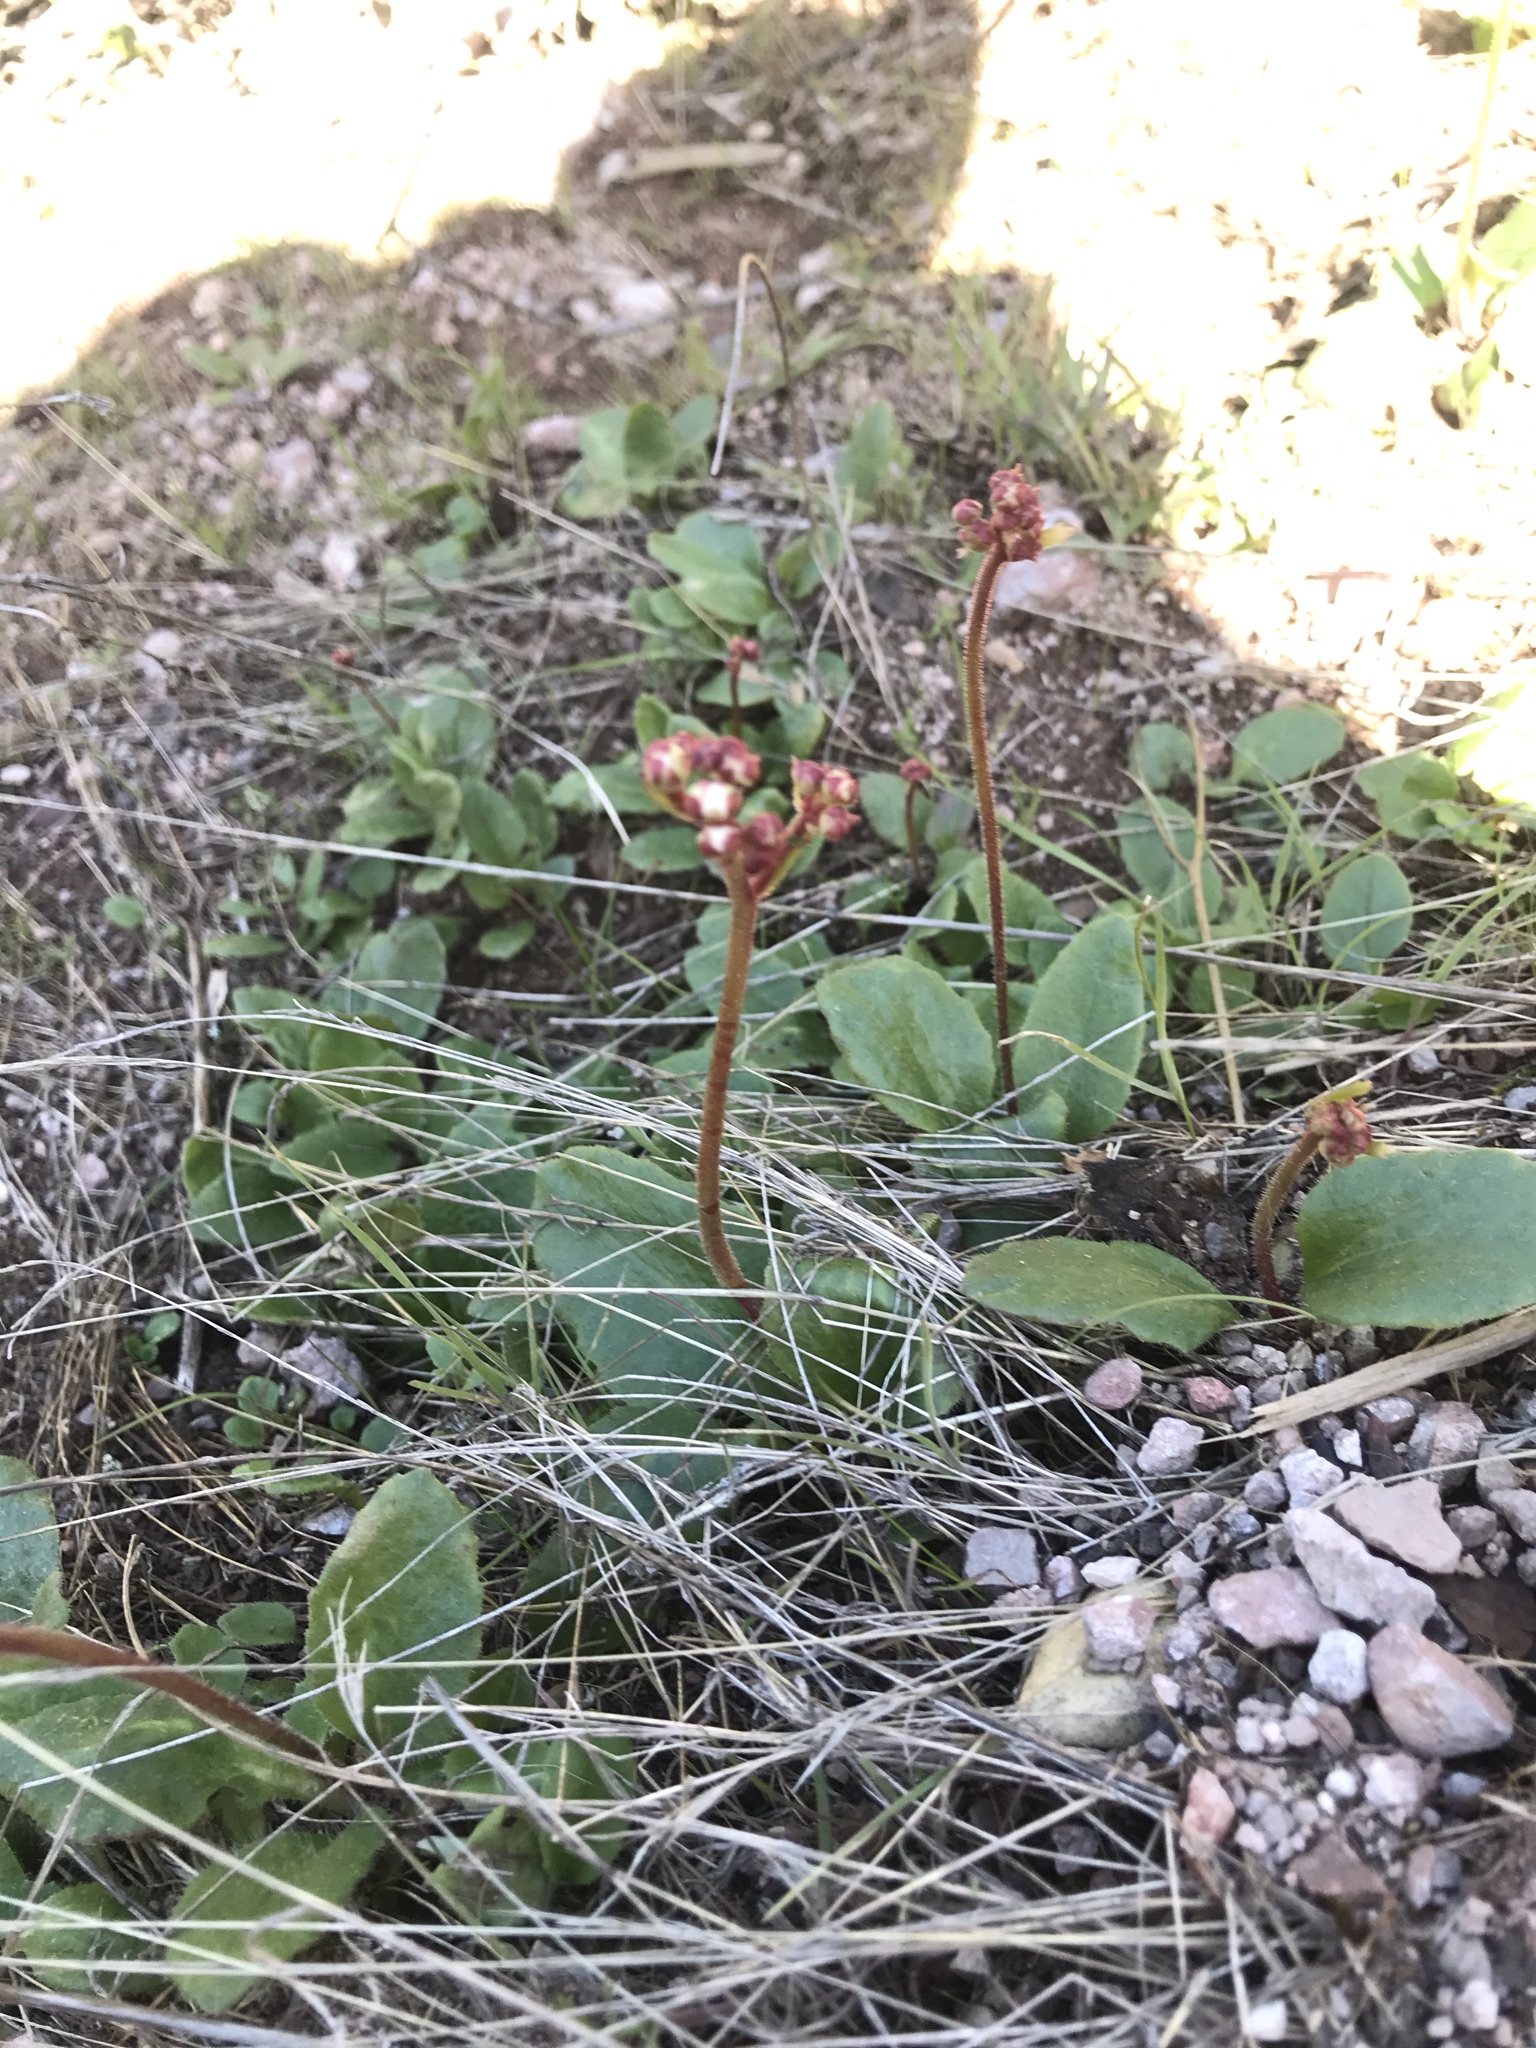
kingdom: Plantae
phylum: Tracheophyta
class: Magnoliopsida
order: Saxifragales
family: Saxifragaceae
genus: Micranthes
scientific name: Micranthes californica
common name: California saxifrage
